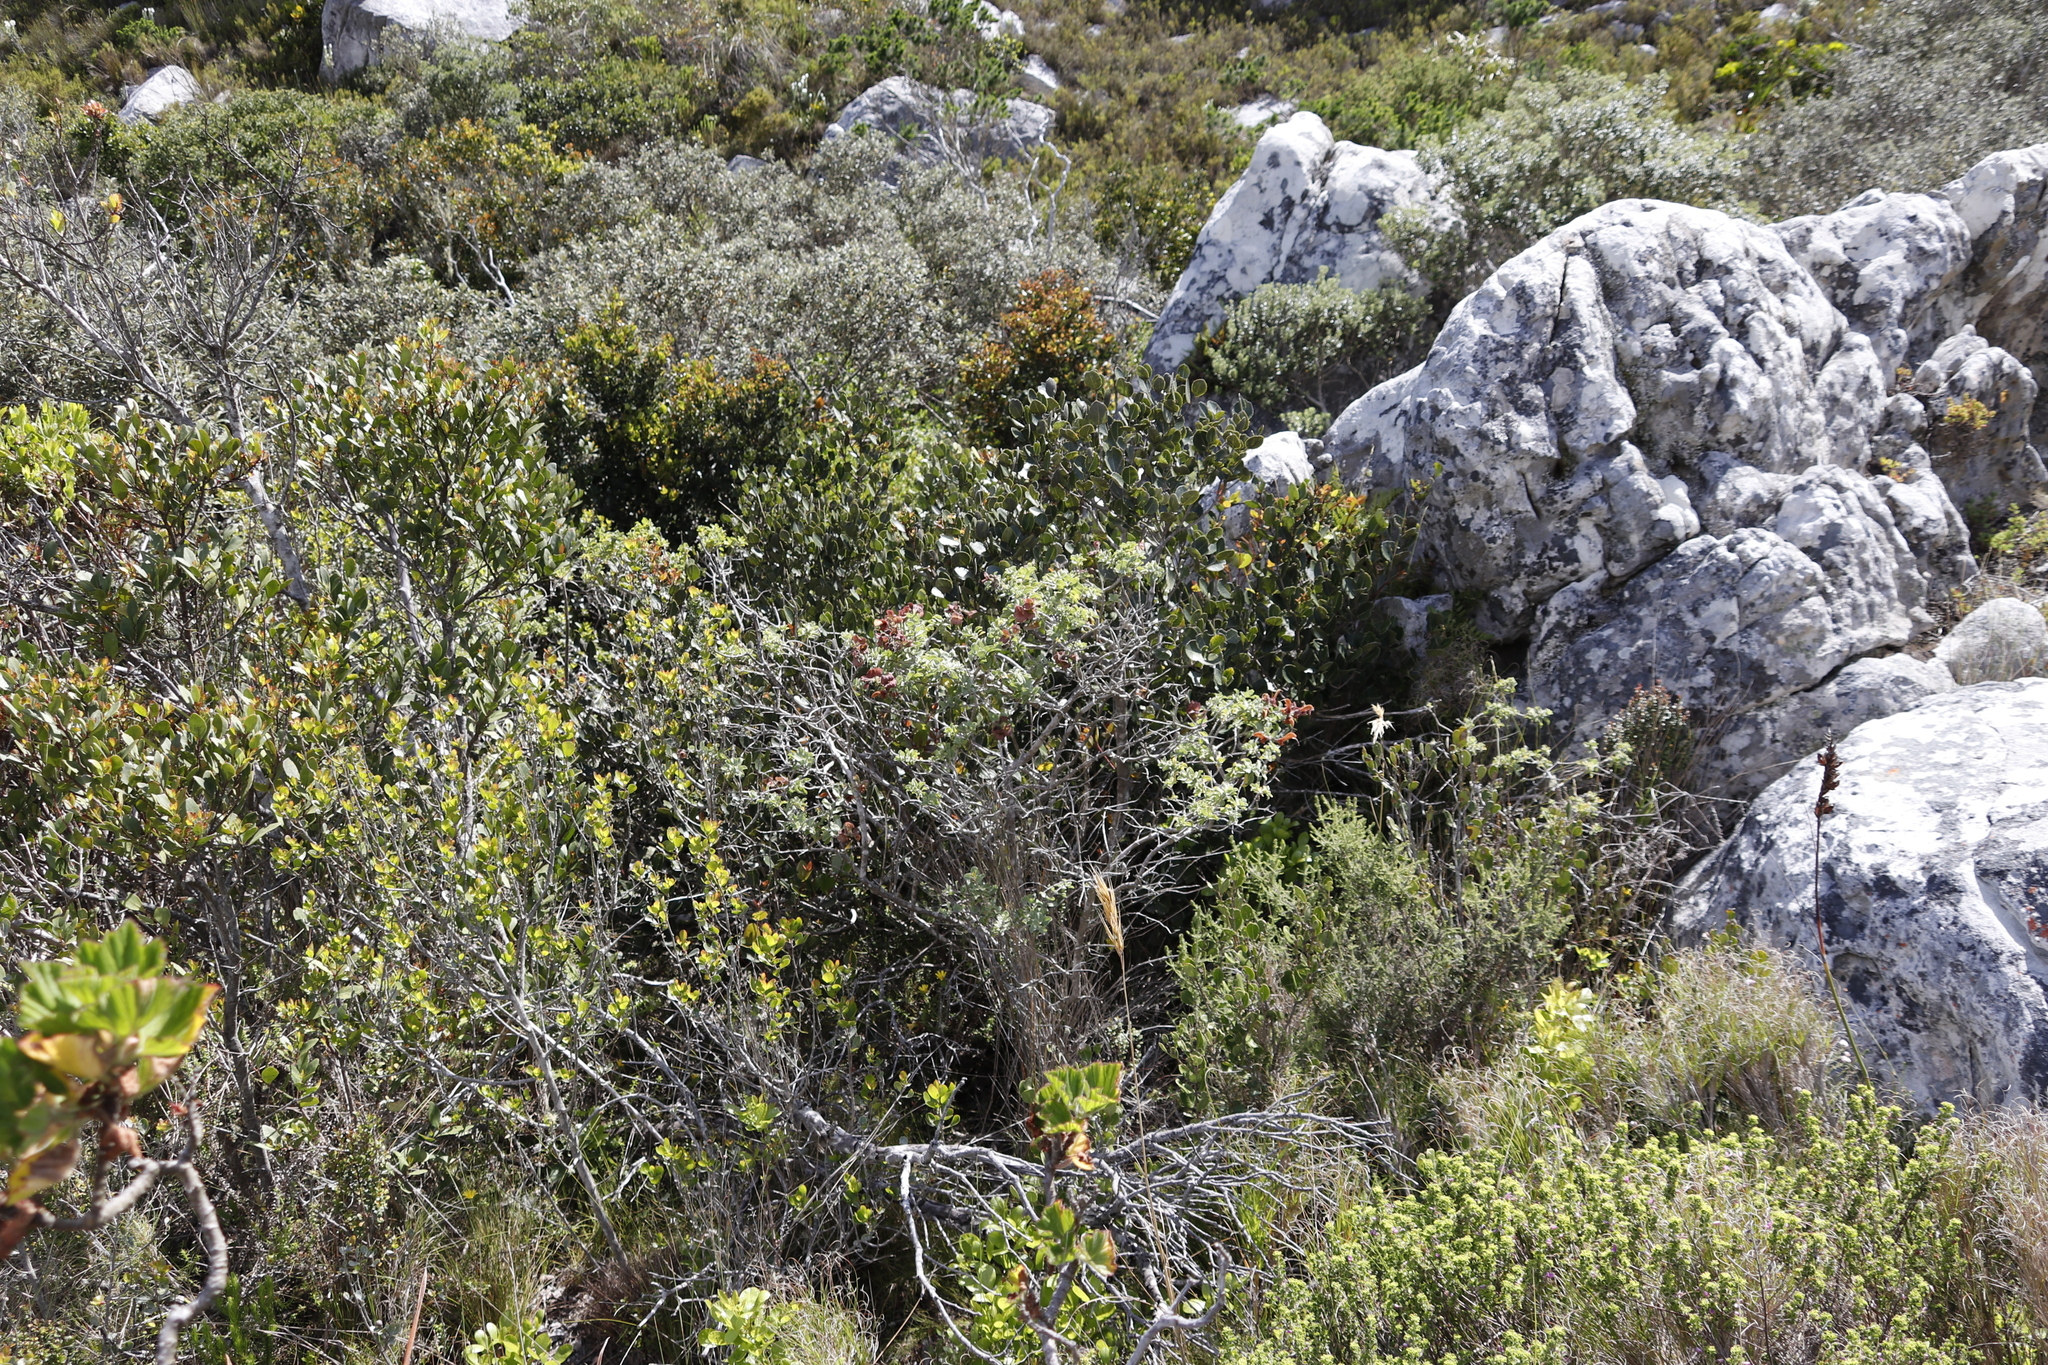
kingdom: Plantae
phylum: Tracheophyta
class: Magnoliopsida
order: Lamiales
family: Lamiaceae
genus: Salvia
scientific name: Salvia aurea
